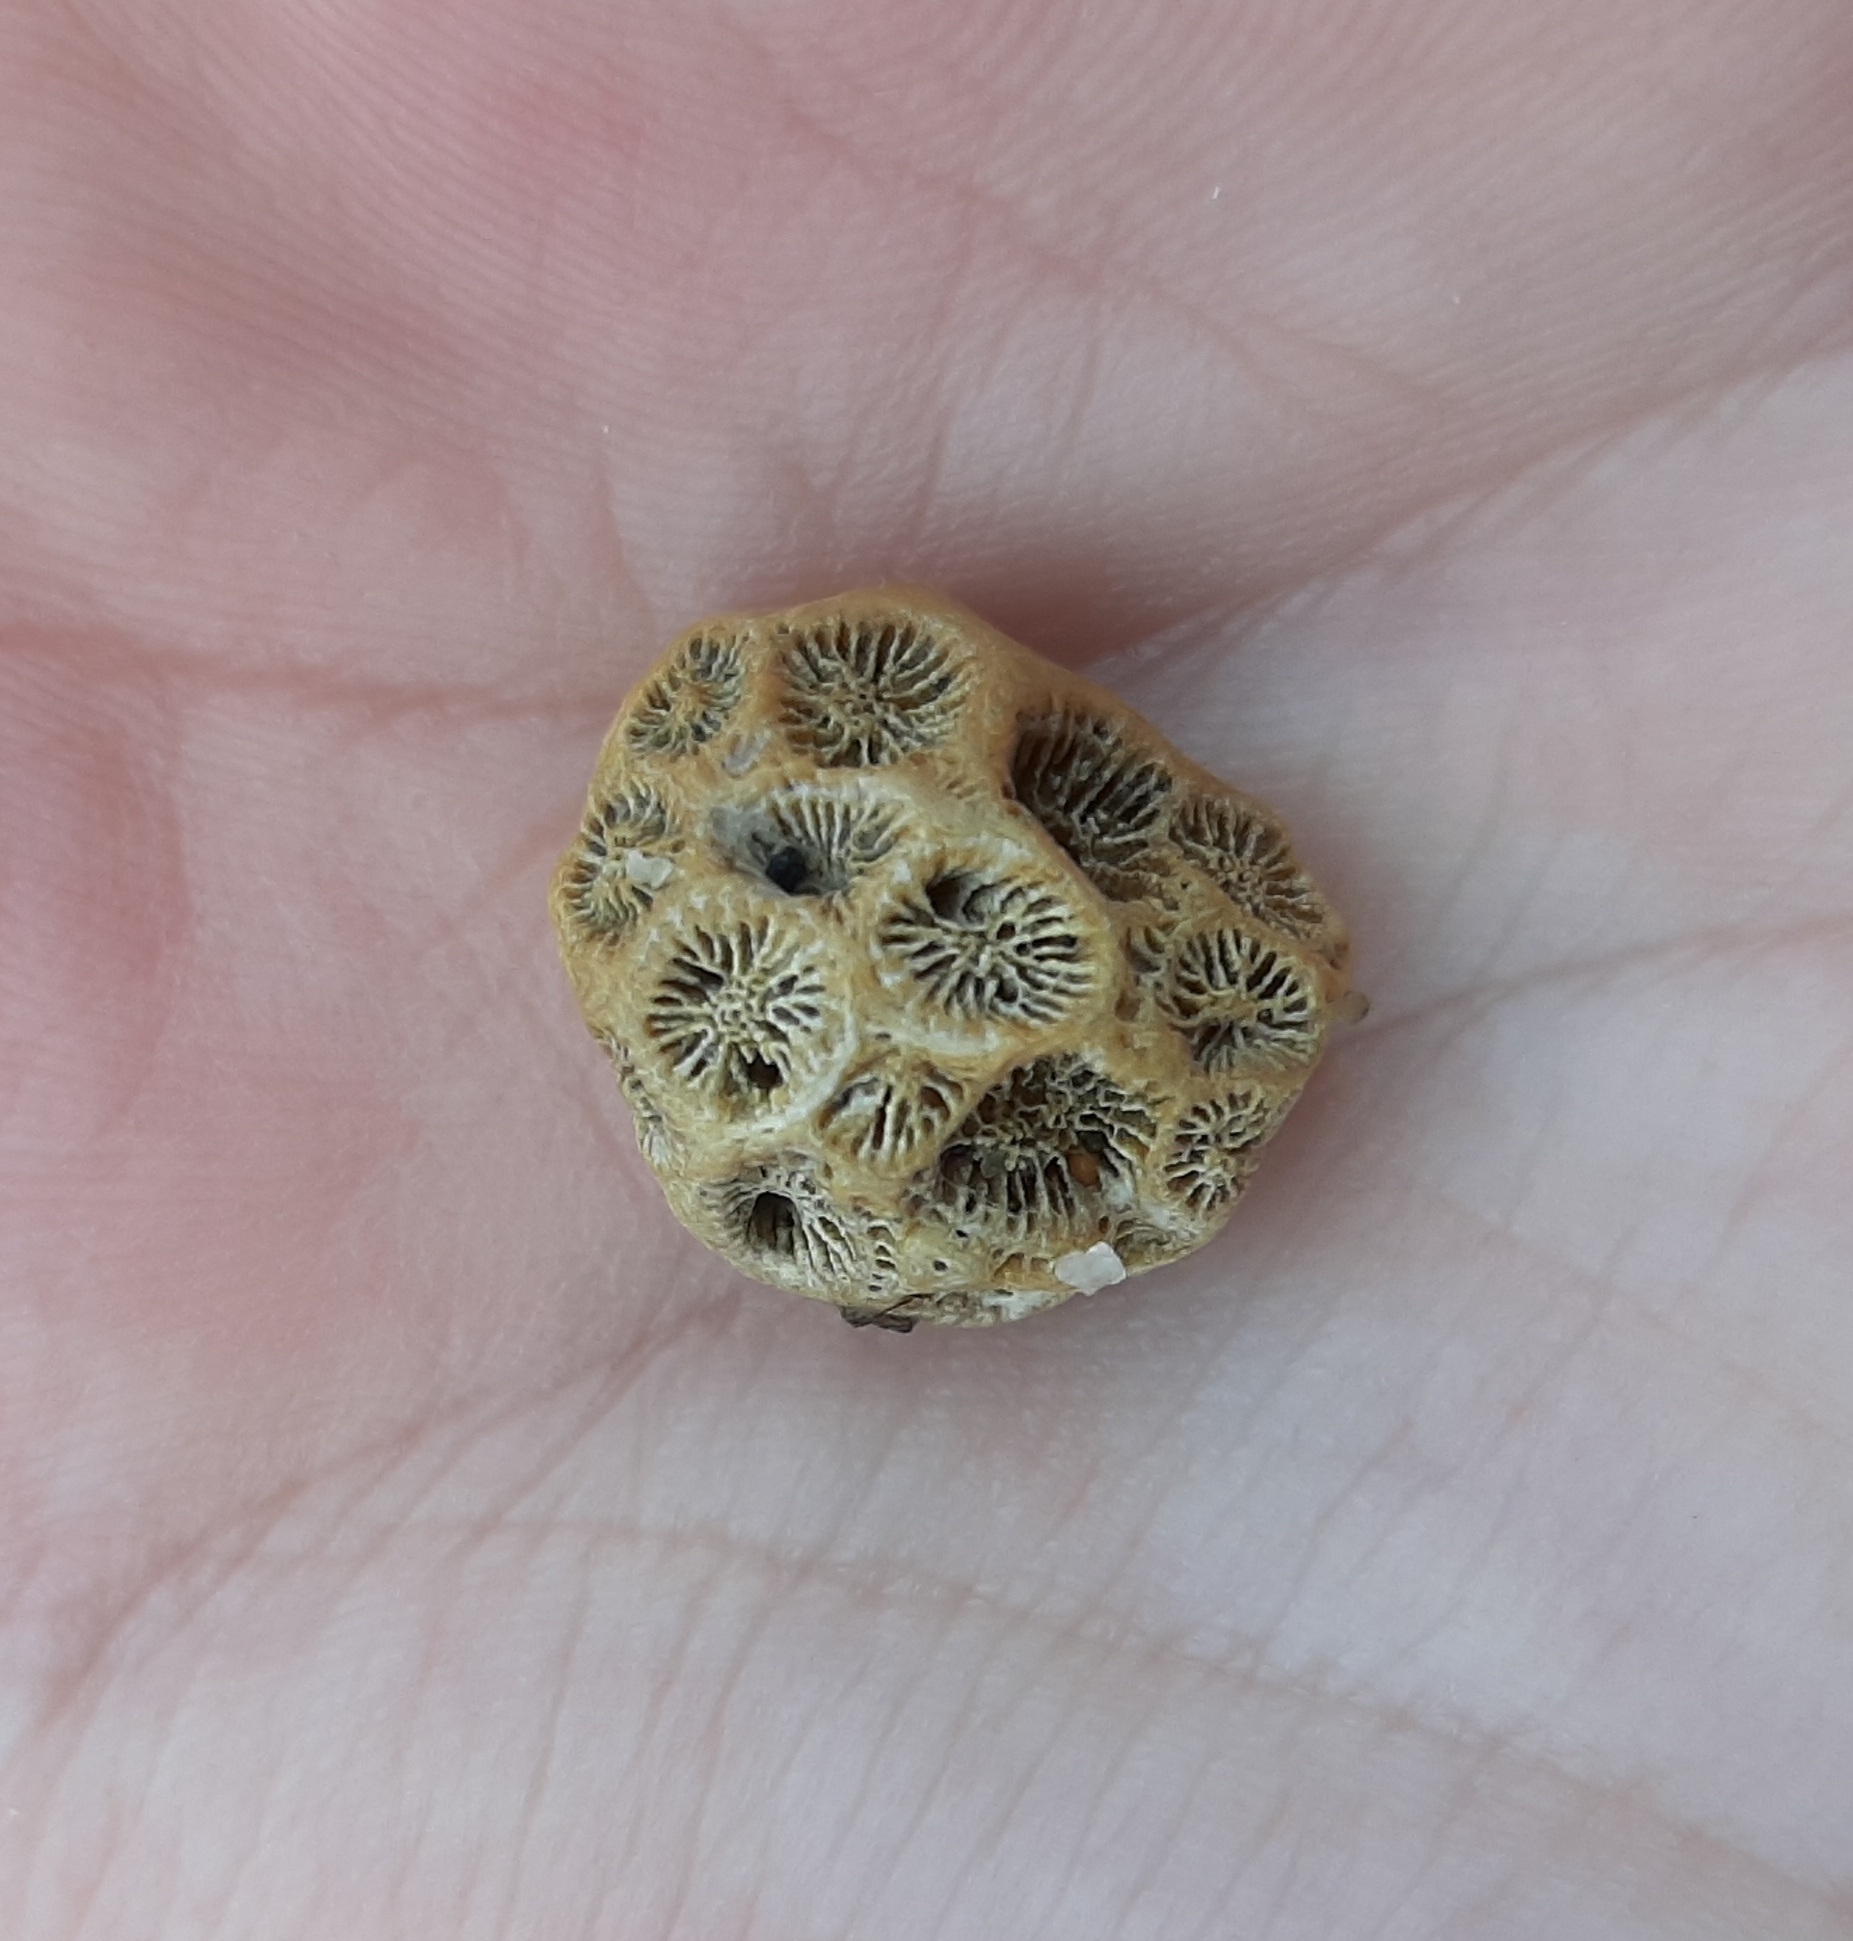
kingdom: Animalia
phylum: Cnidaria
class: Anthozoa
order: Scleractinia
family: Astrangiidae
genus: Astrangia
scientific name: Astrangia poculata
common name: Northern star coral
